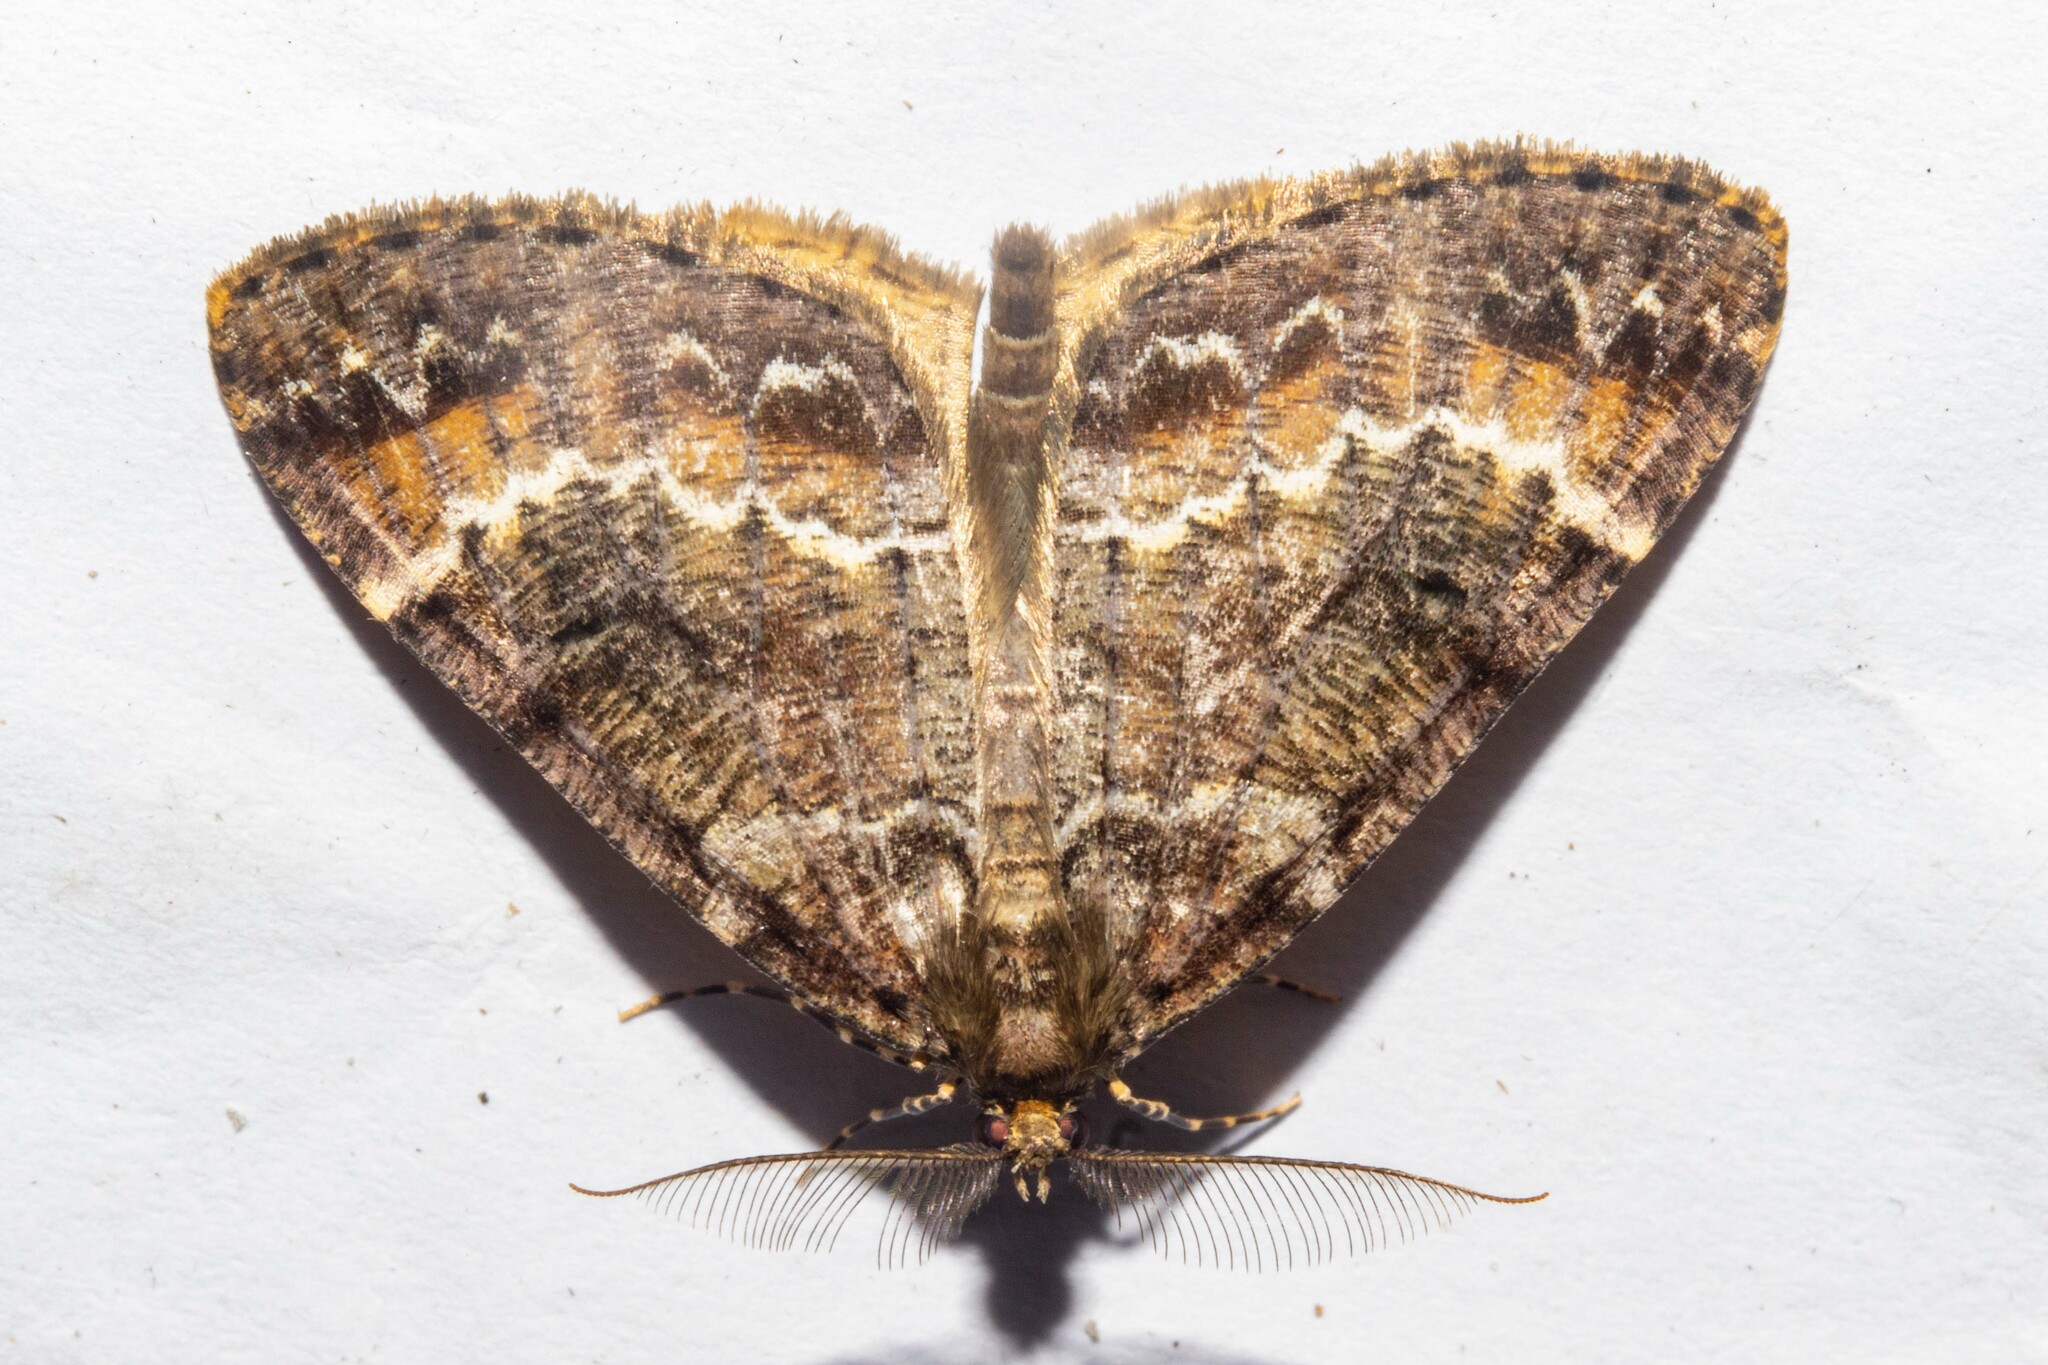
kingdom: Animalia
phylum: Arthropoda
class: Insecta
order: Lepidoptera
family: Geometridae
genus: Pseudocoremia
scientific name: Pseudocoremia productata
